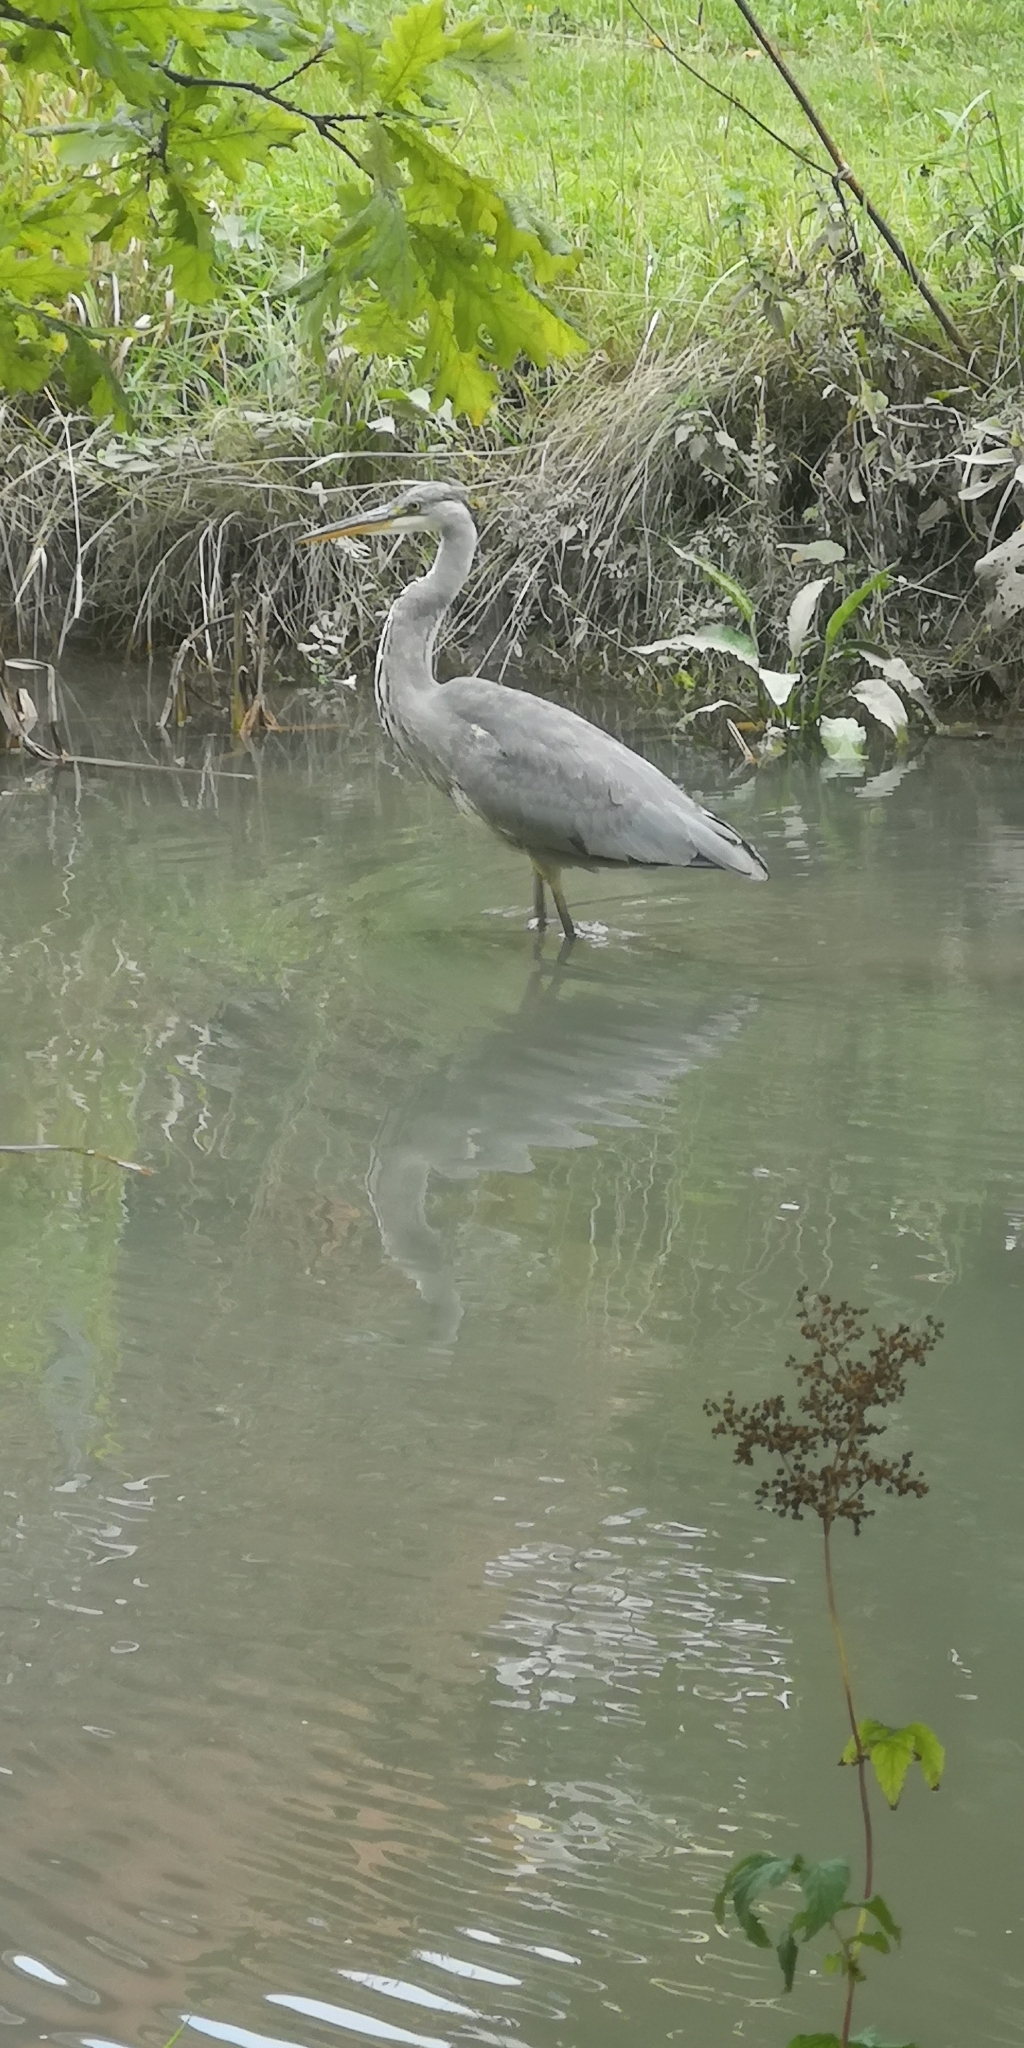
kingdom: Animalia
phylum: Chordata
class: Aves
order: Pelecaniformes
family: Ardeidae
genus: Ardea
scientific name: Ardea cinerea
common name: Grey heron
